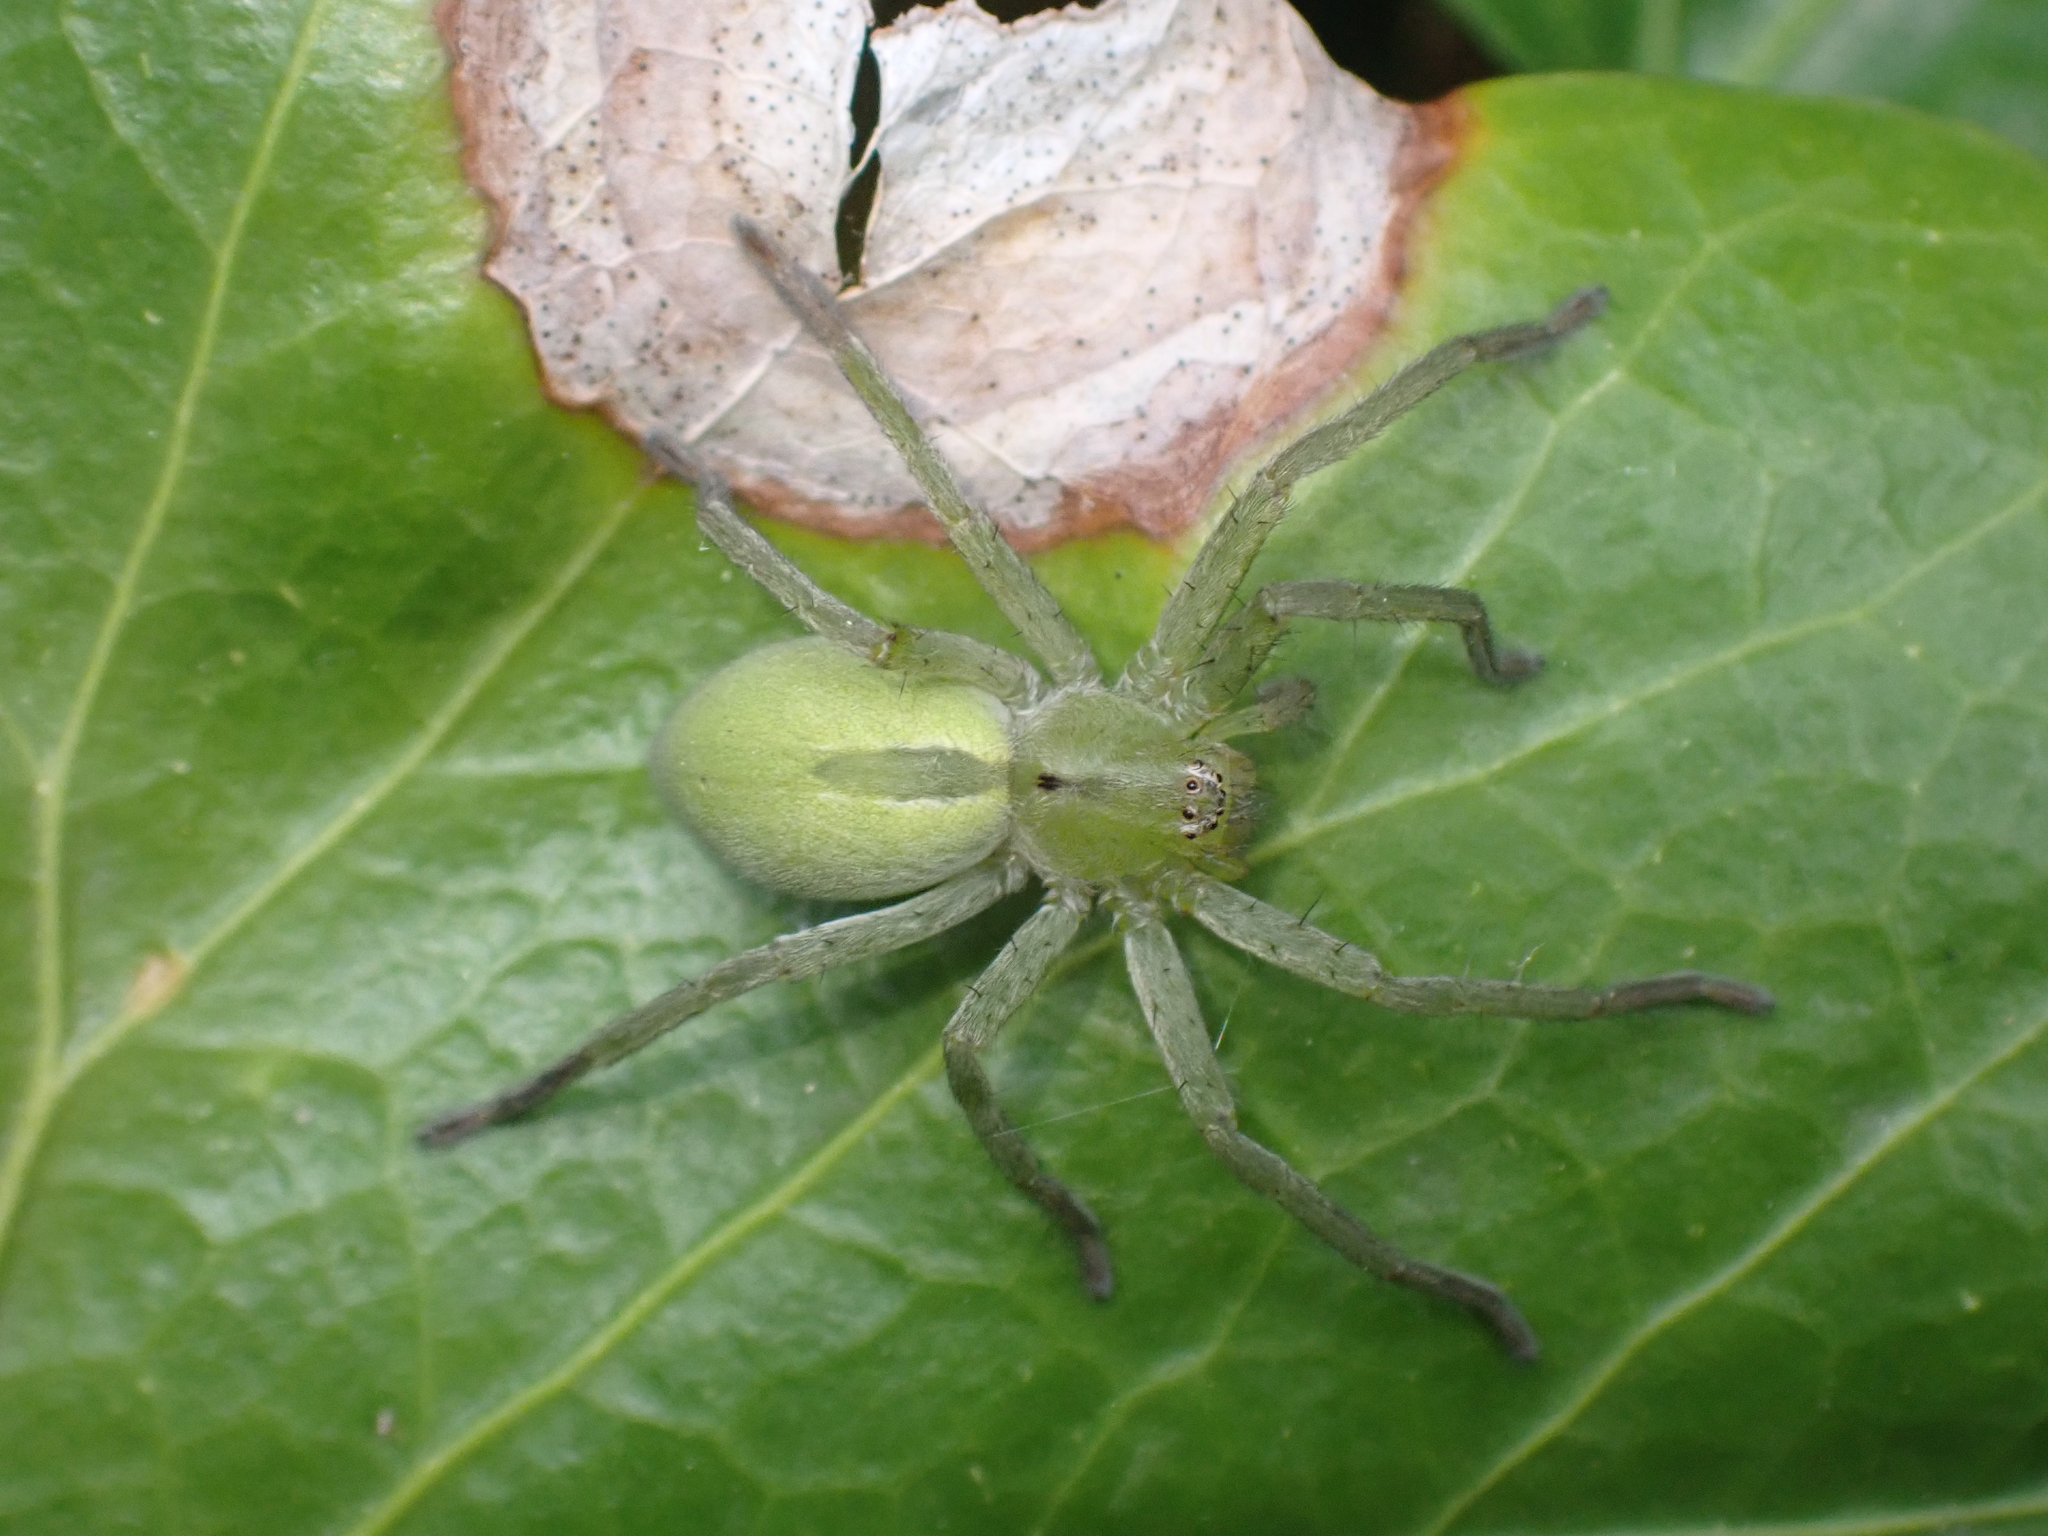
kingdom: Animalia
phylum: Arthropoda
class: Arachnida
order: Araneae
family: Sparassidae
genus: Micrommata
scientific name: Micrommata ligurina
